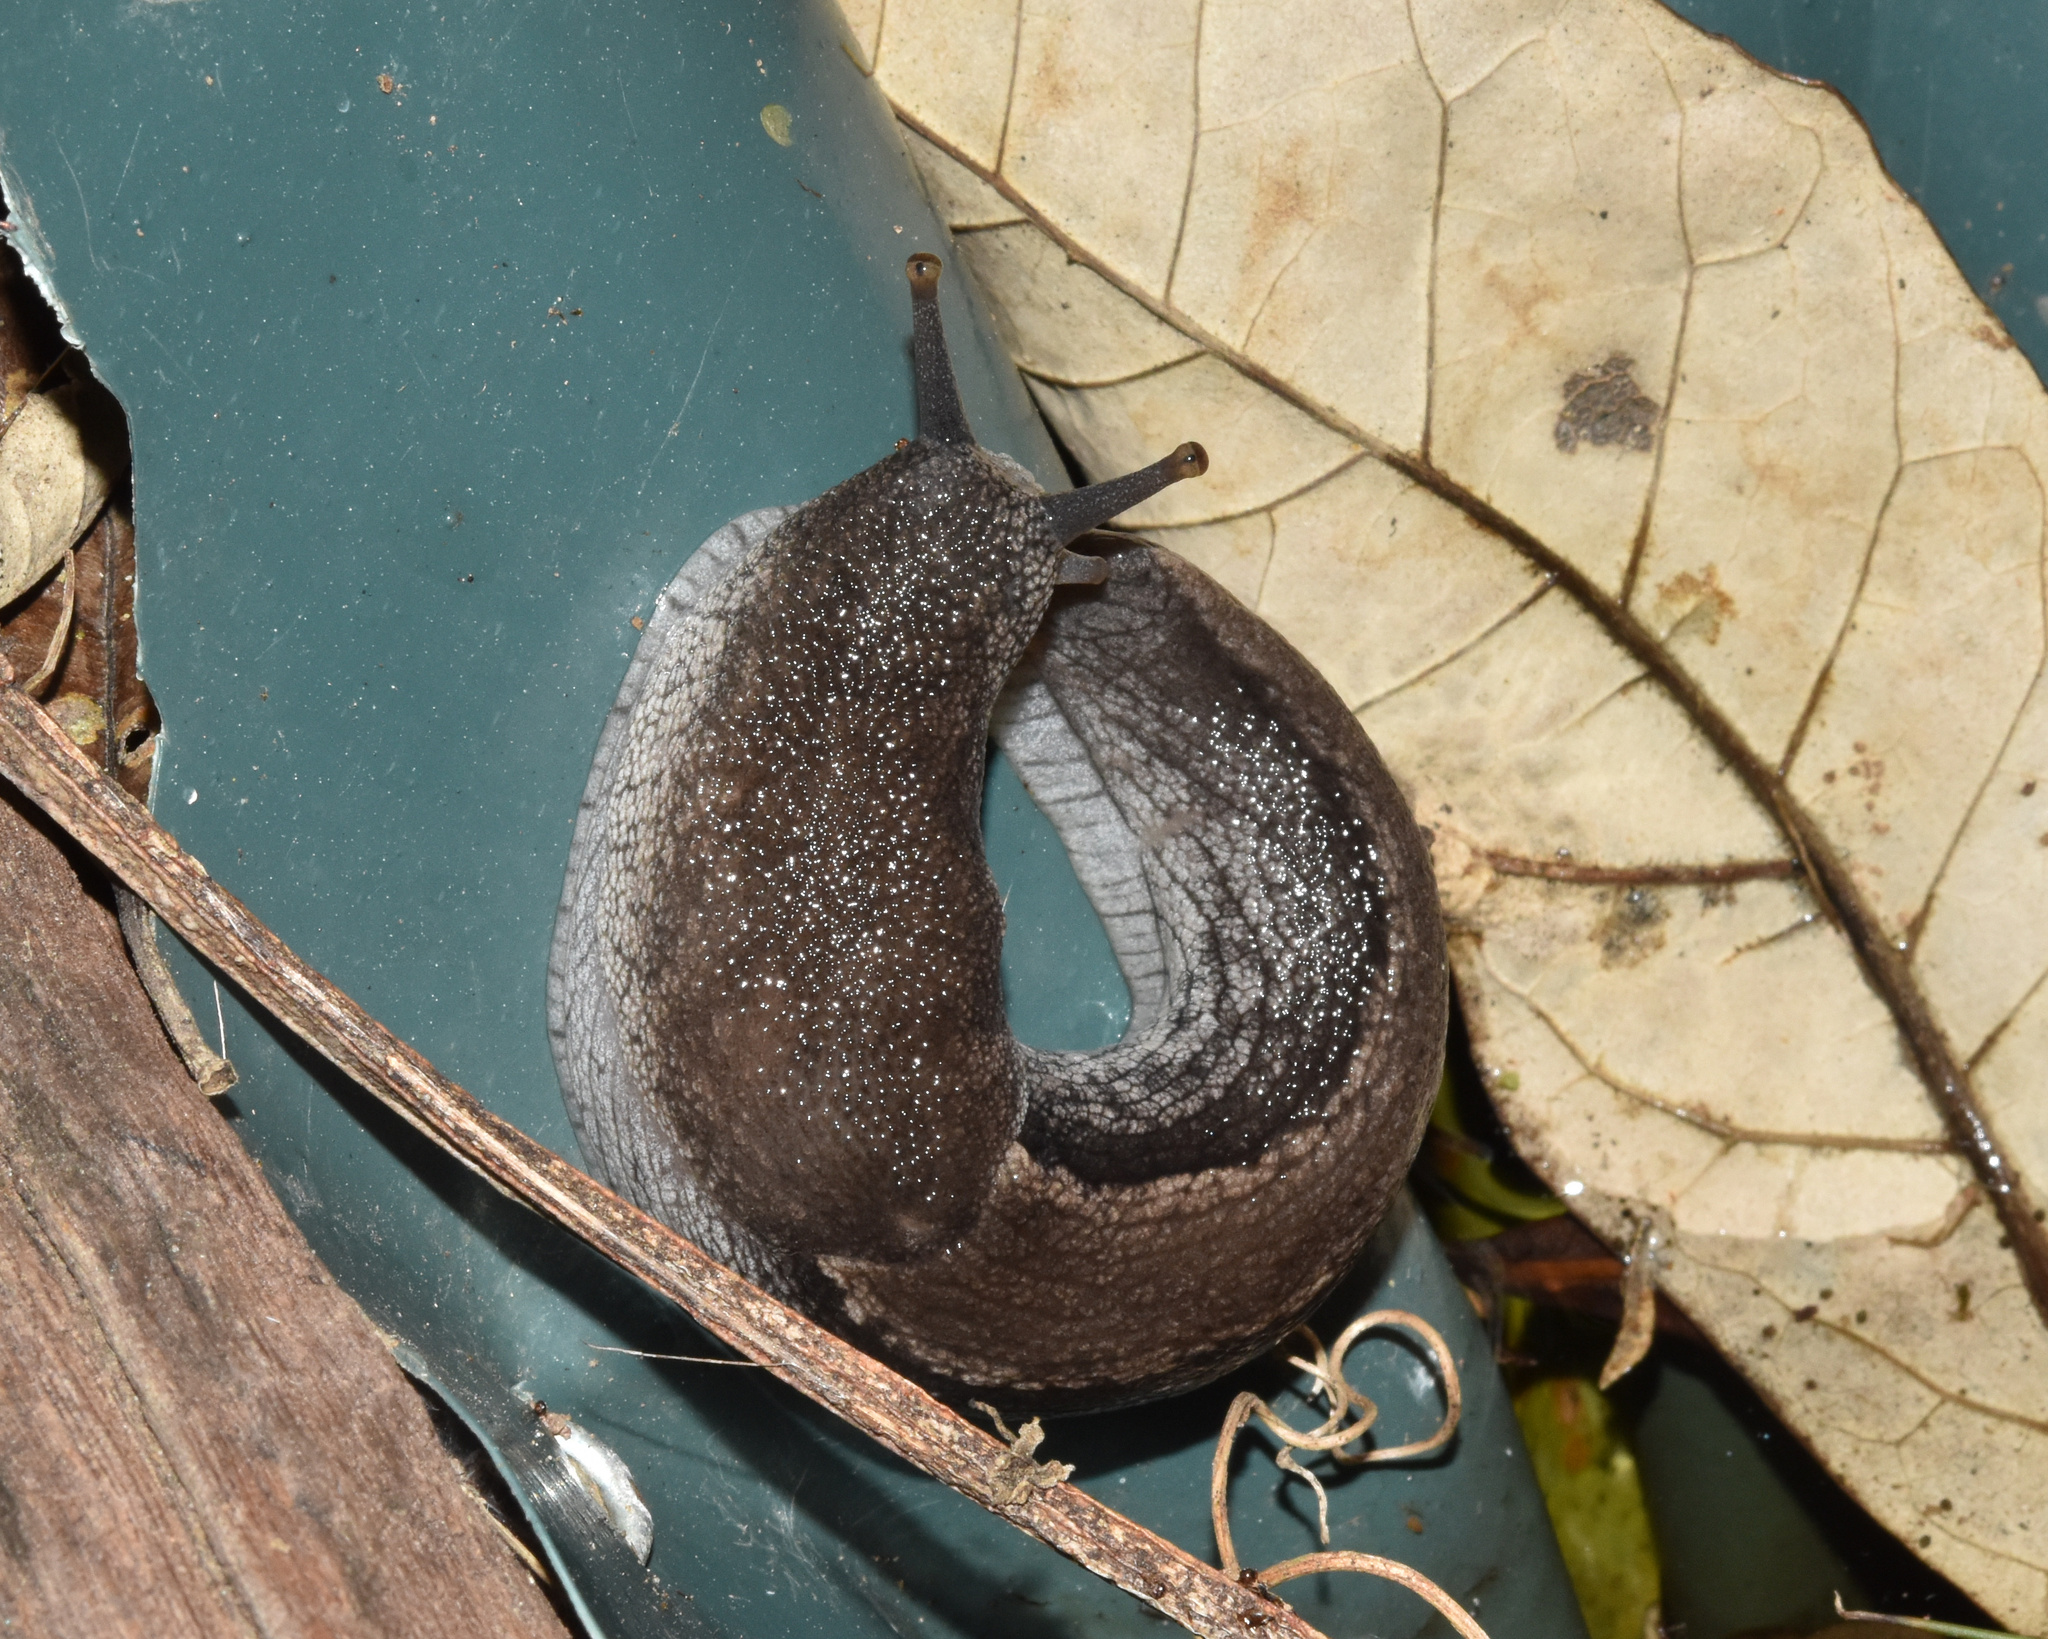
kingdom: Animalia
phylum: Mollusca
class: Gastropoda
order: Stylommatophora
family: Urocyclidae
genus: Urocyclus
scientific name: Urocyclus kirkii
